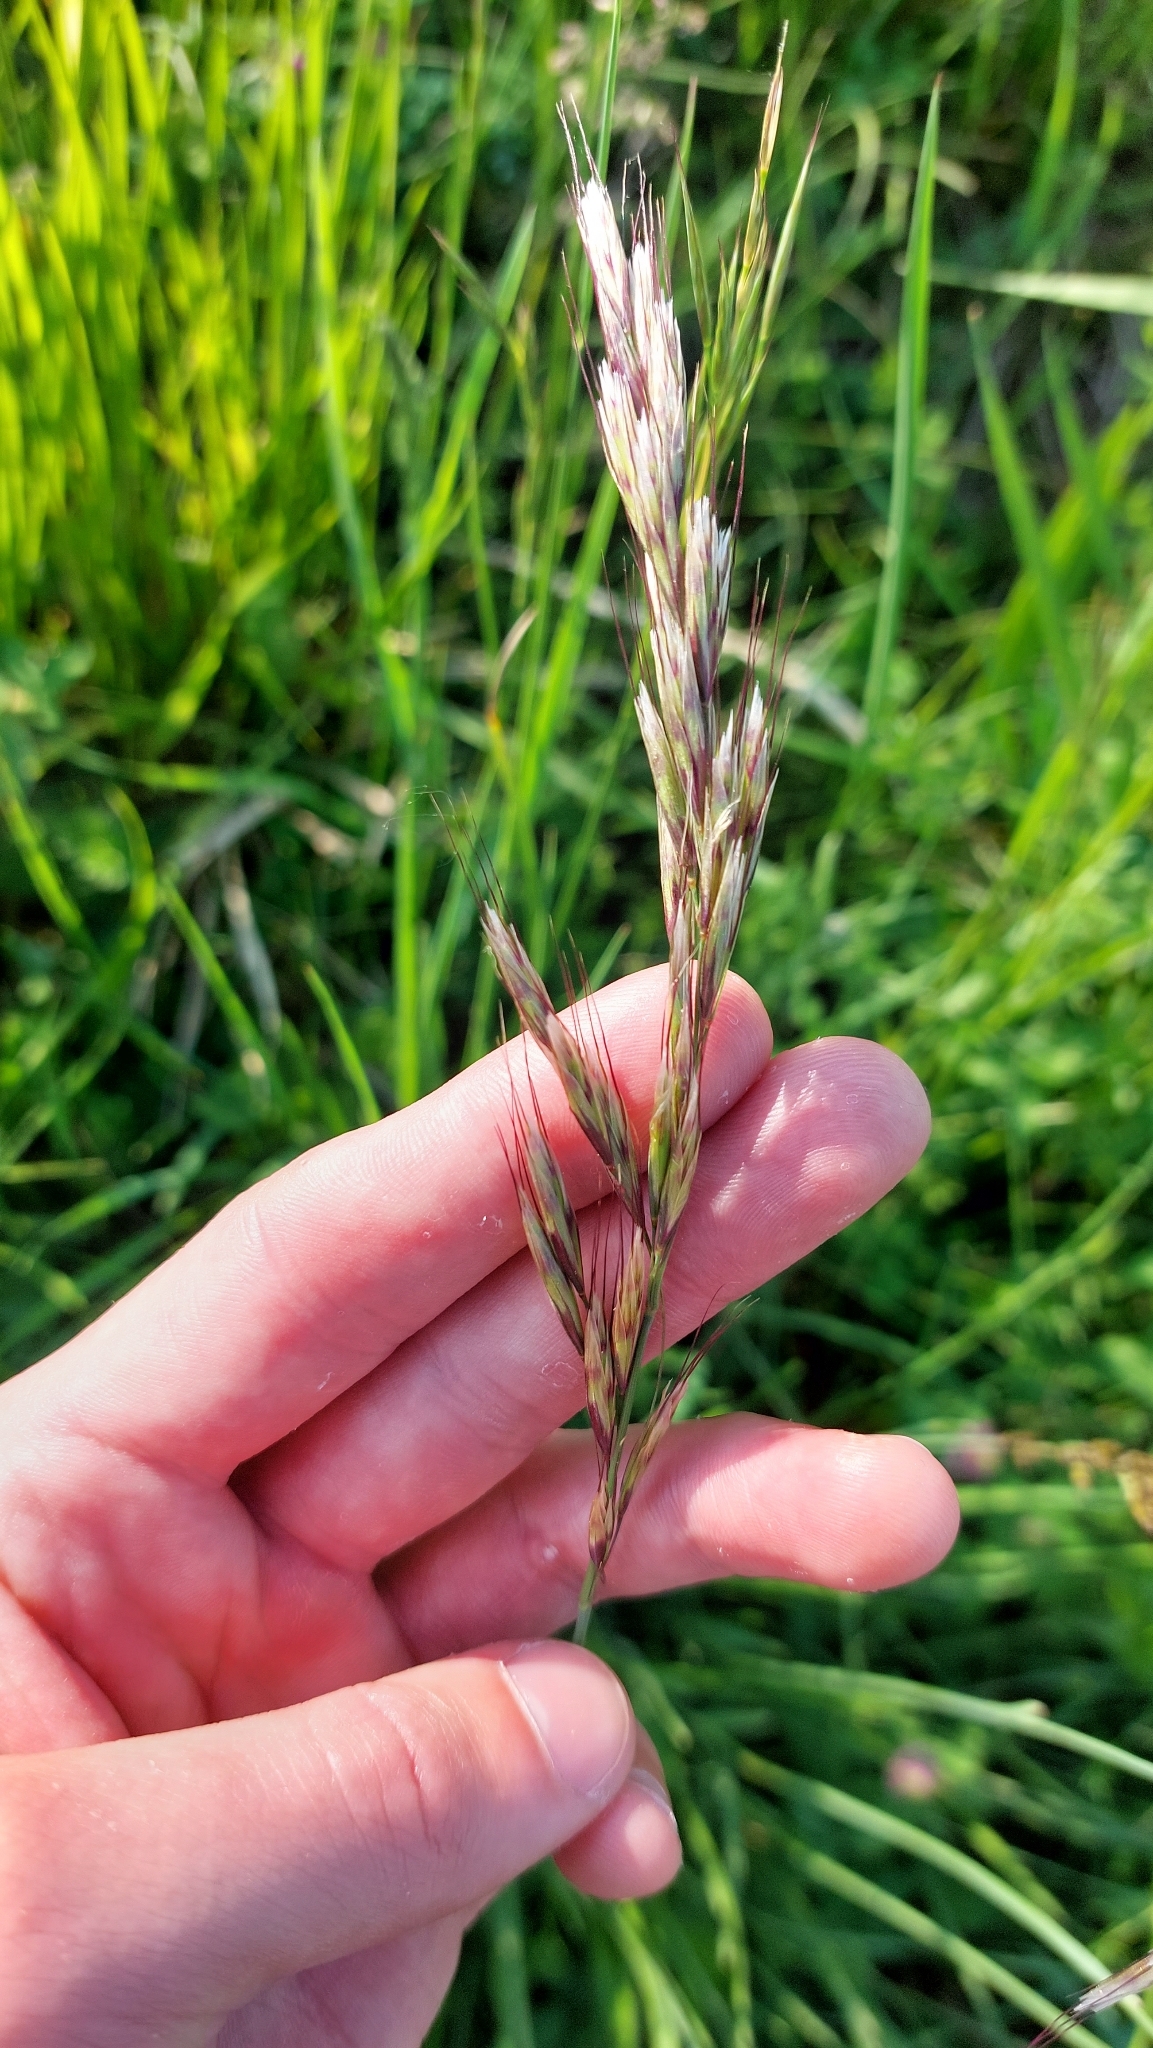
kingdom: Plantae
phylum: Tracheophyta
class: Liliopsida
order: Poales
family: Poaceae
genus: Avenula
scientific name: Avenula pubescens
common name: Downy alpine oatgrass
